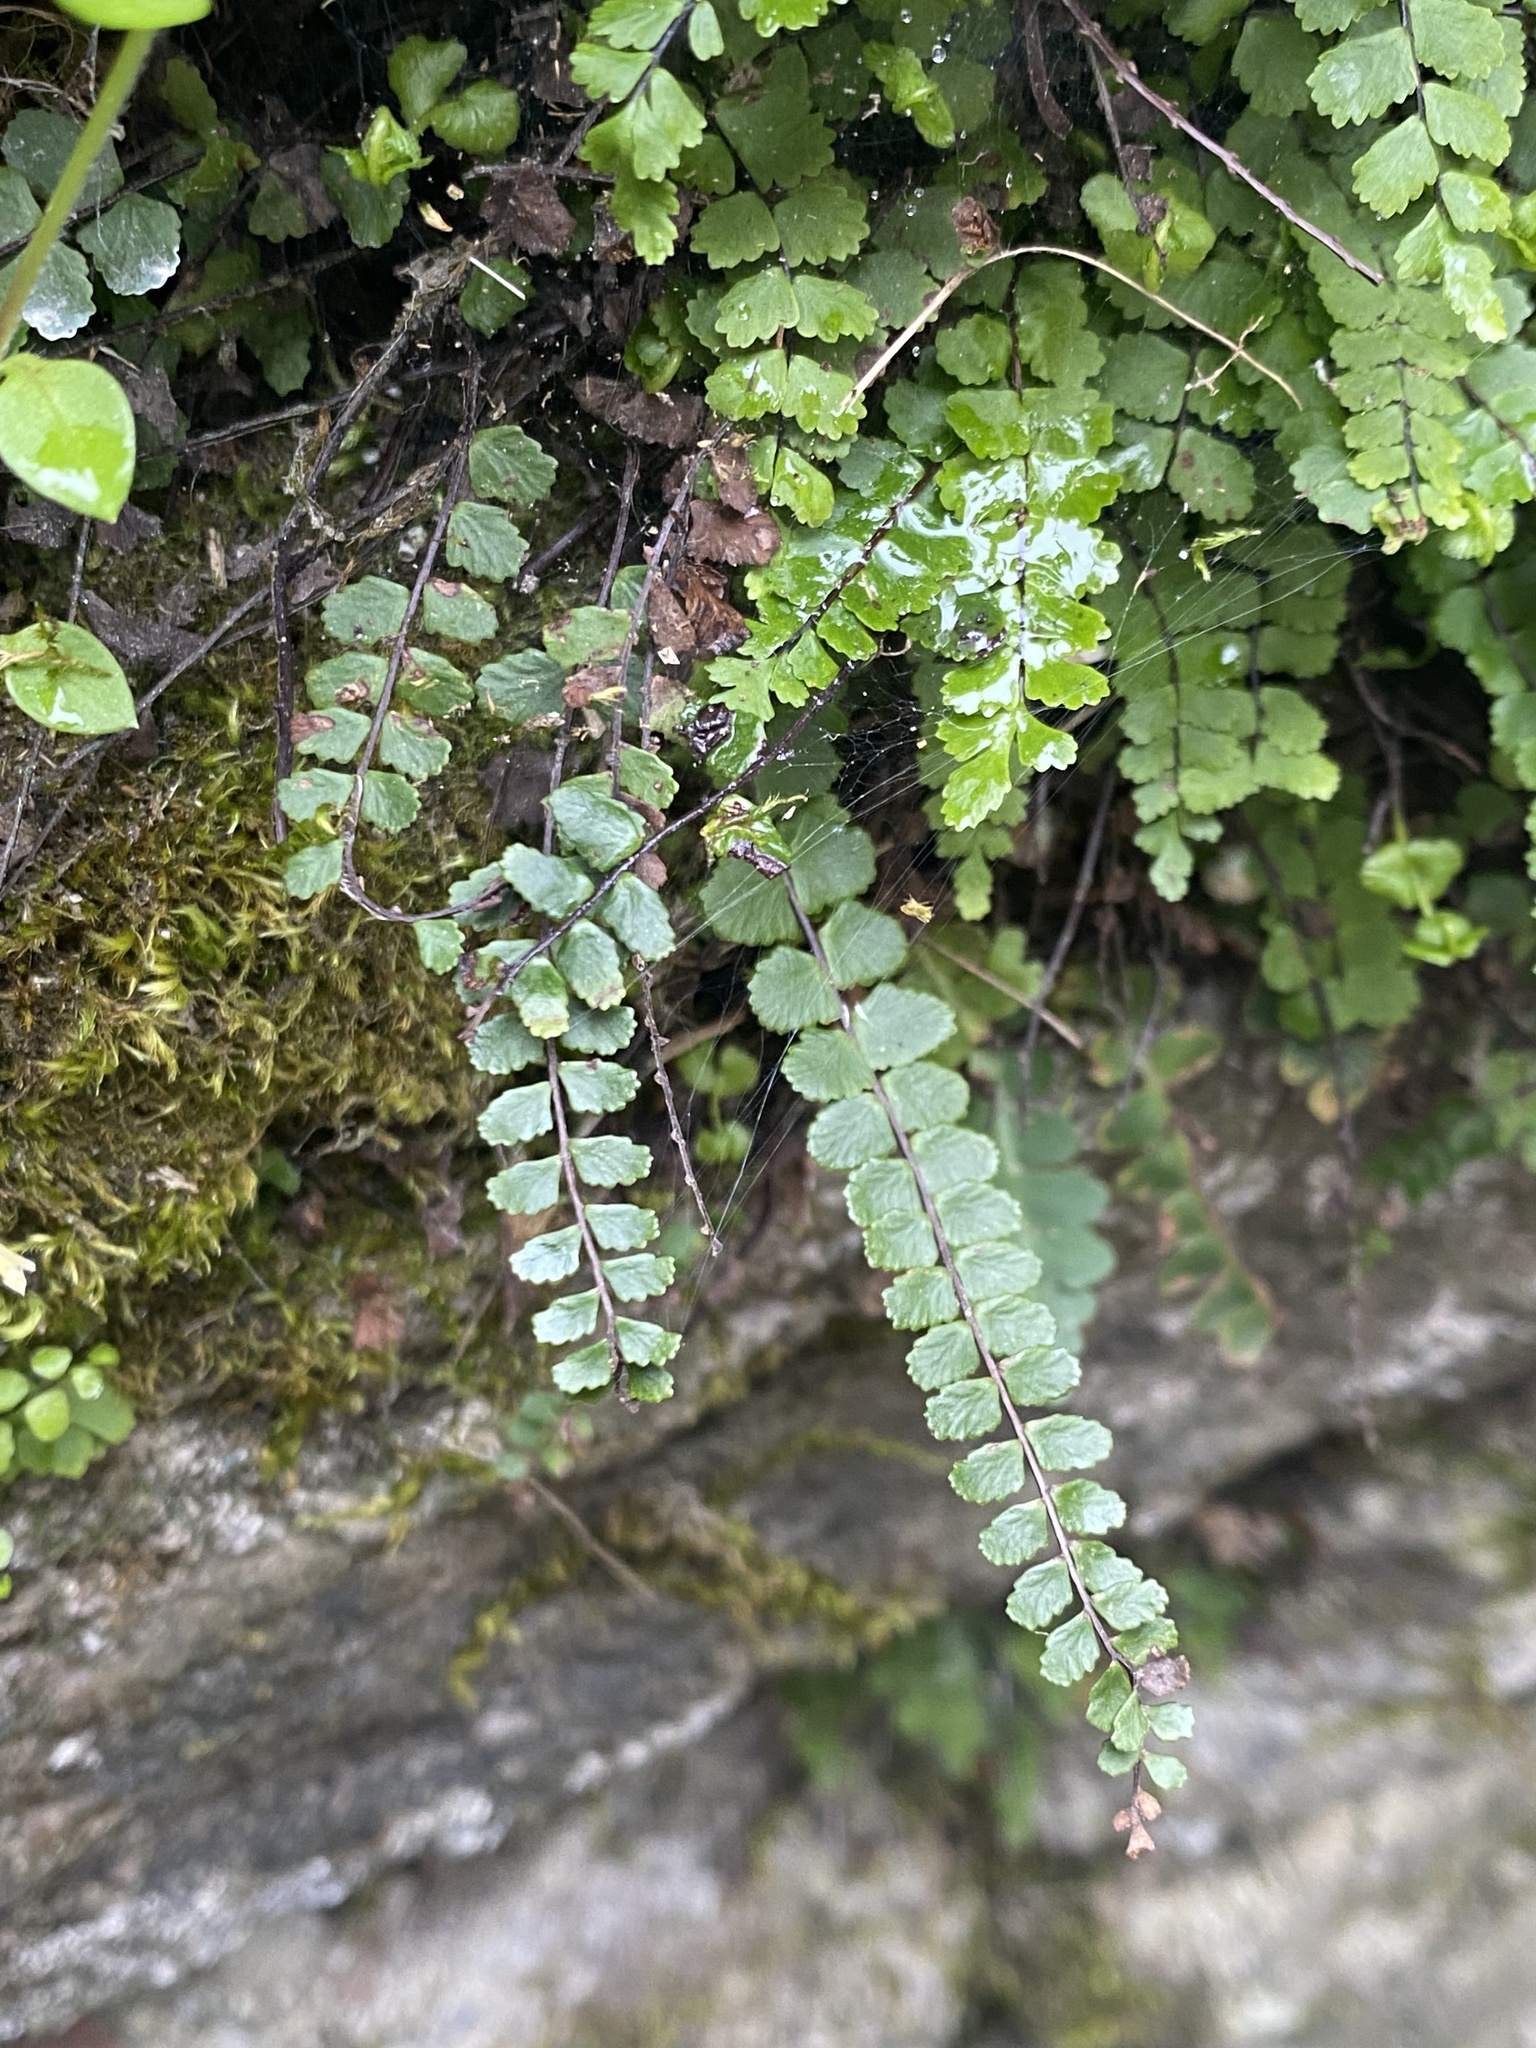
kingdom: Plantae
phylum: Tracheophyta
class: Polypodiopsida
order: Polypodiales
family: Aspleniaceae
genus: Asplenium
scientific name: Asplenium trichomanes
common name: Maidenhair spleenwort
